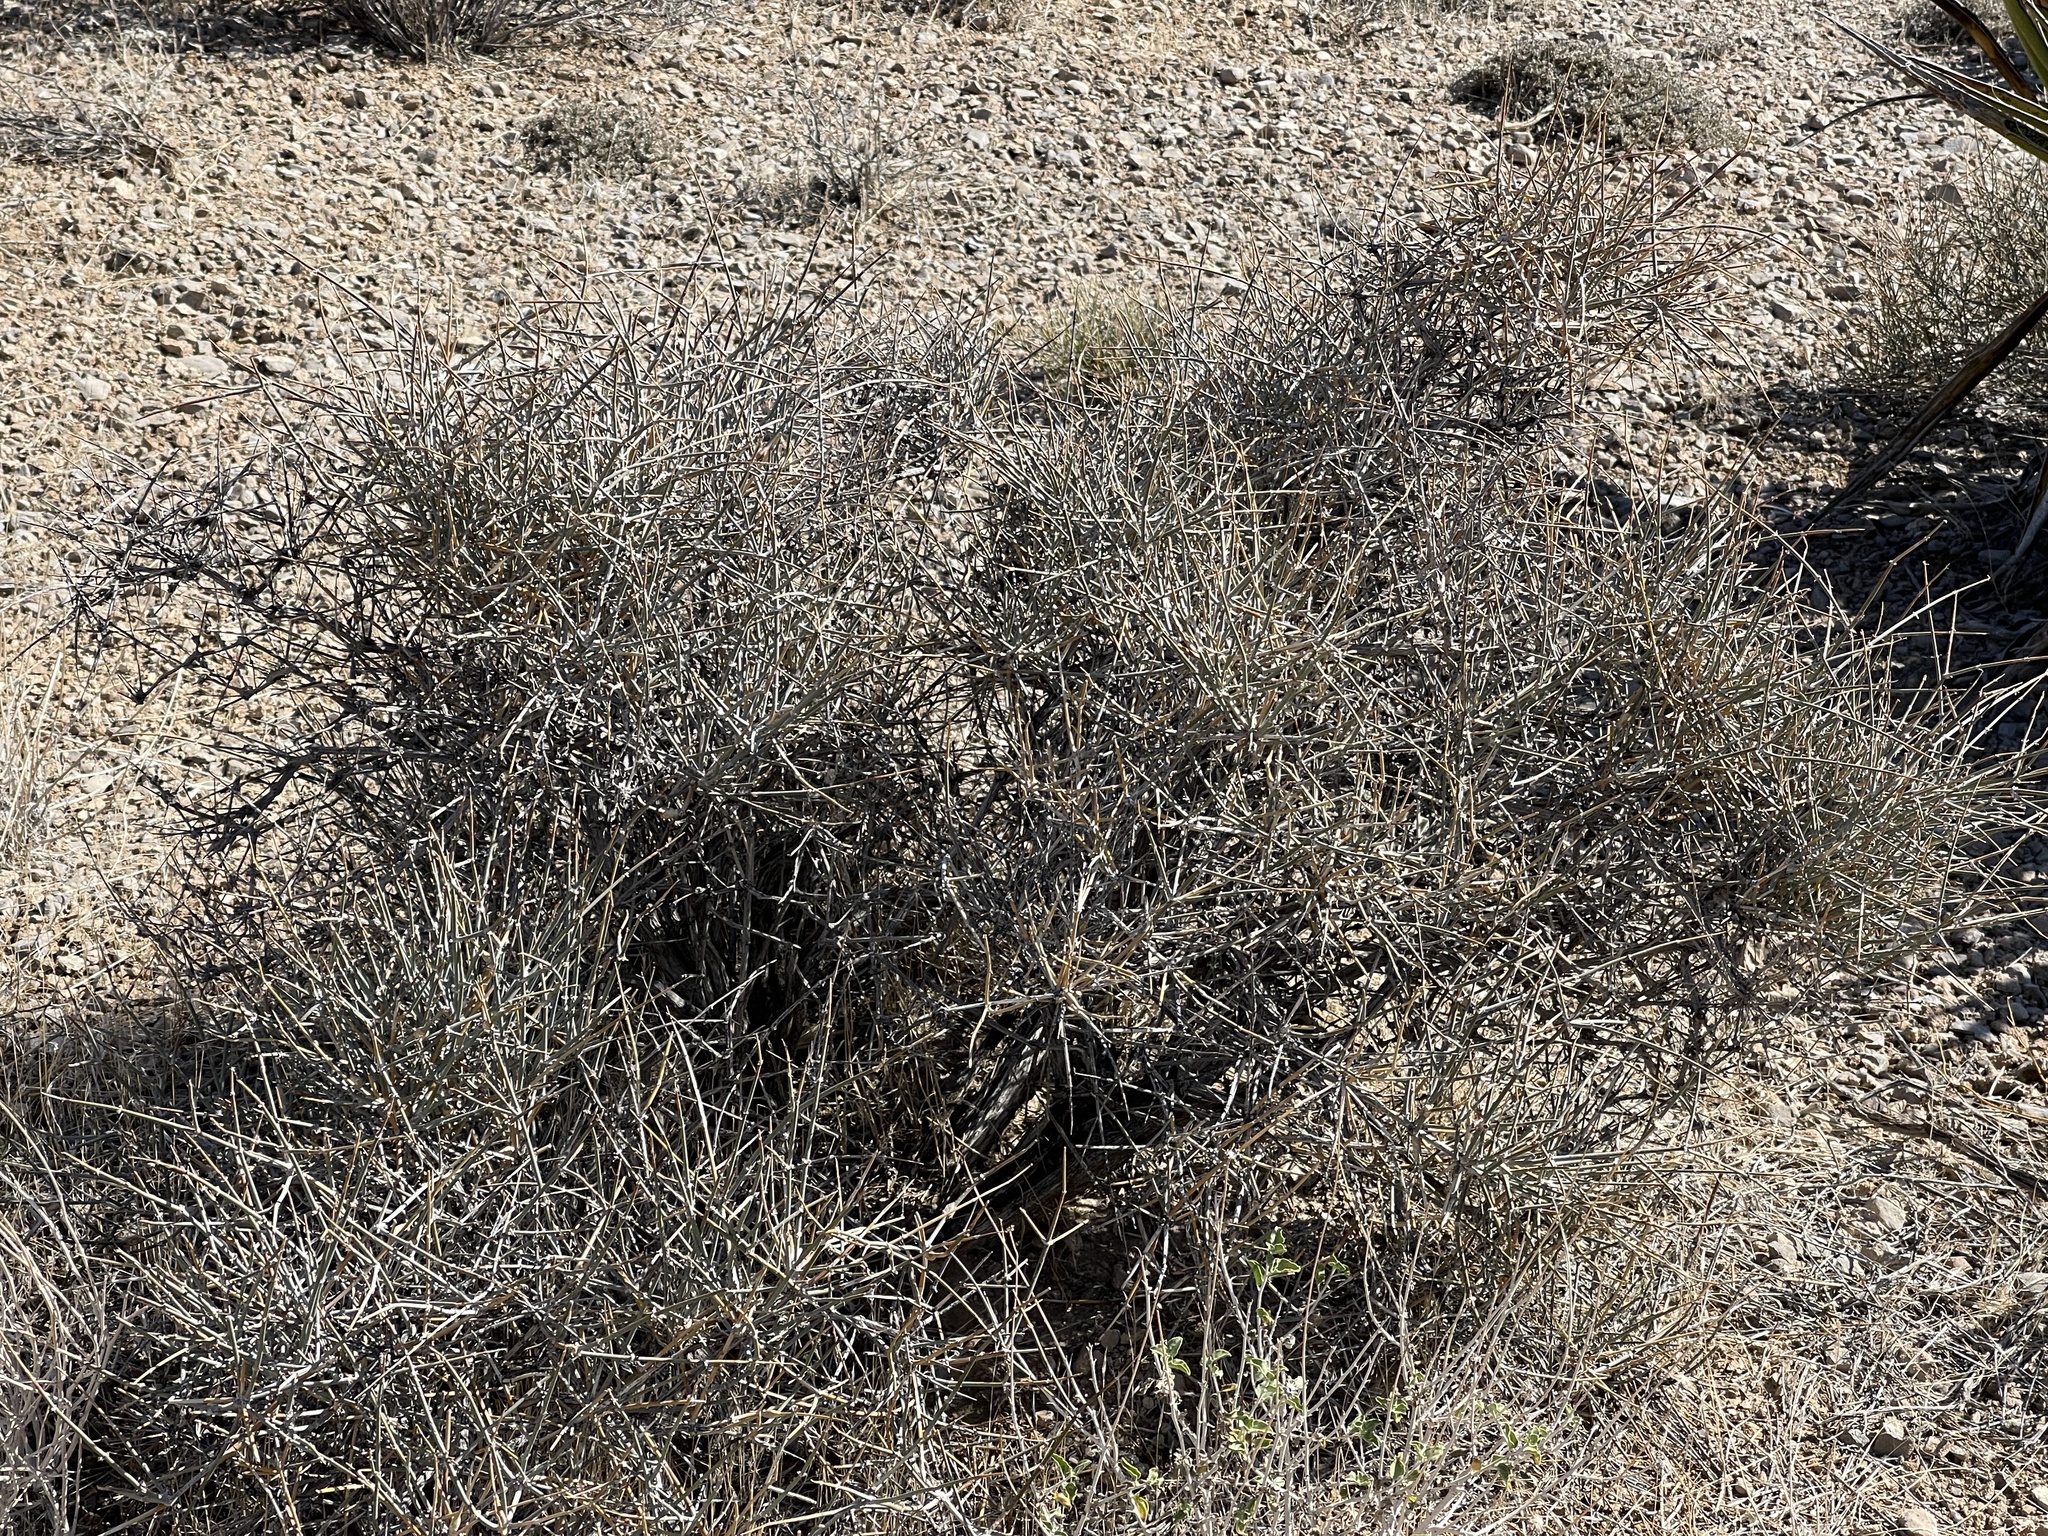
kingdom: Plantae
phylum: Tracheophyta
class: Gnetopsida
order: Ephedrales
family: Ephedraceae
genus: Ephedra
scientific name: Ephedra nevadensis
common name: Gray ephedra
